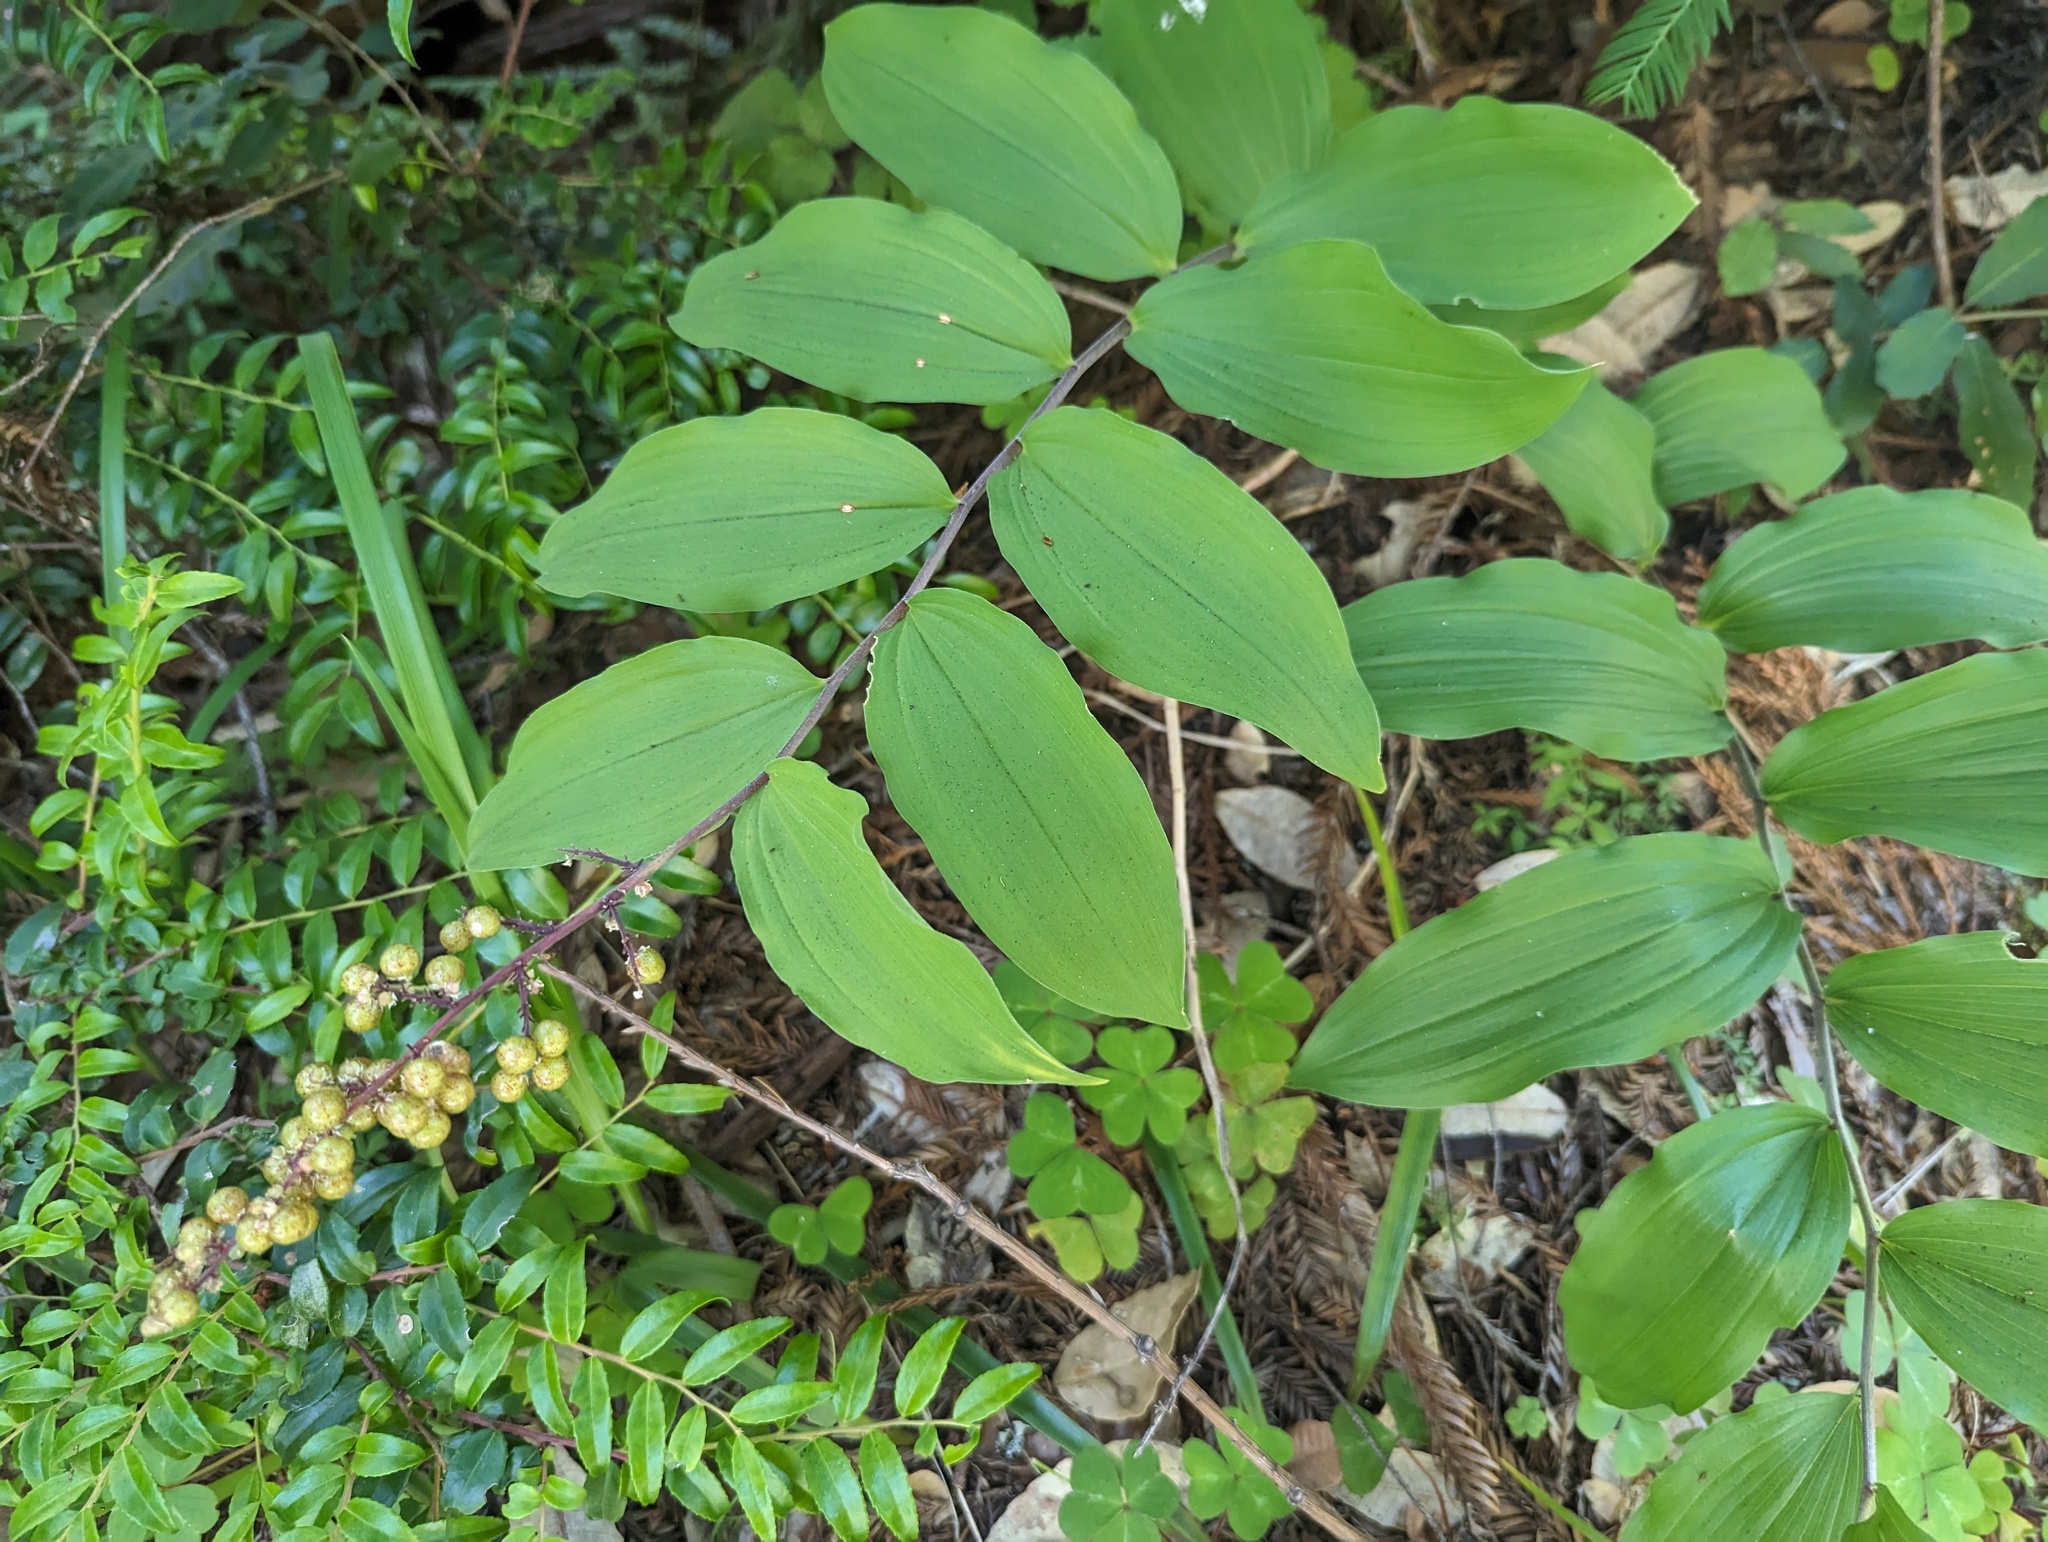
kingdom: Plantae
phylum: Tracheophyta
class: Liliopsida
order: Asparagales
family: Asparagaceae
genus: Maianthemum
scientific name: Maianthemum racemosum
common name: False spikenard
